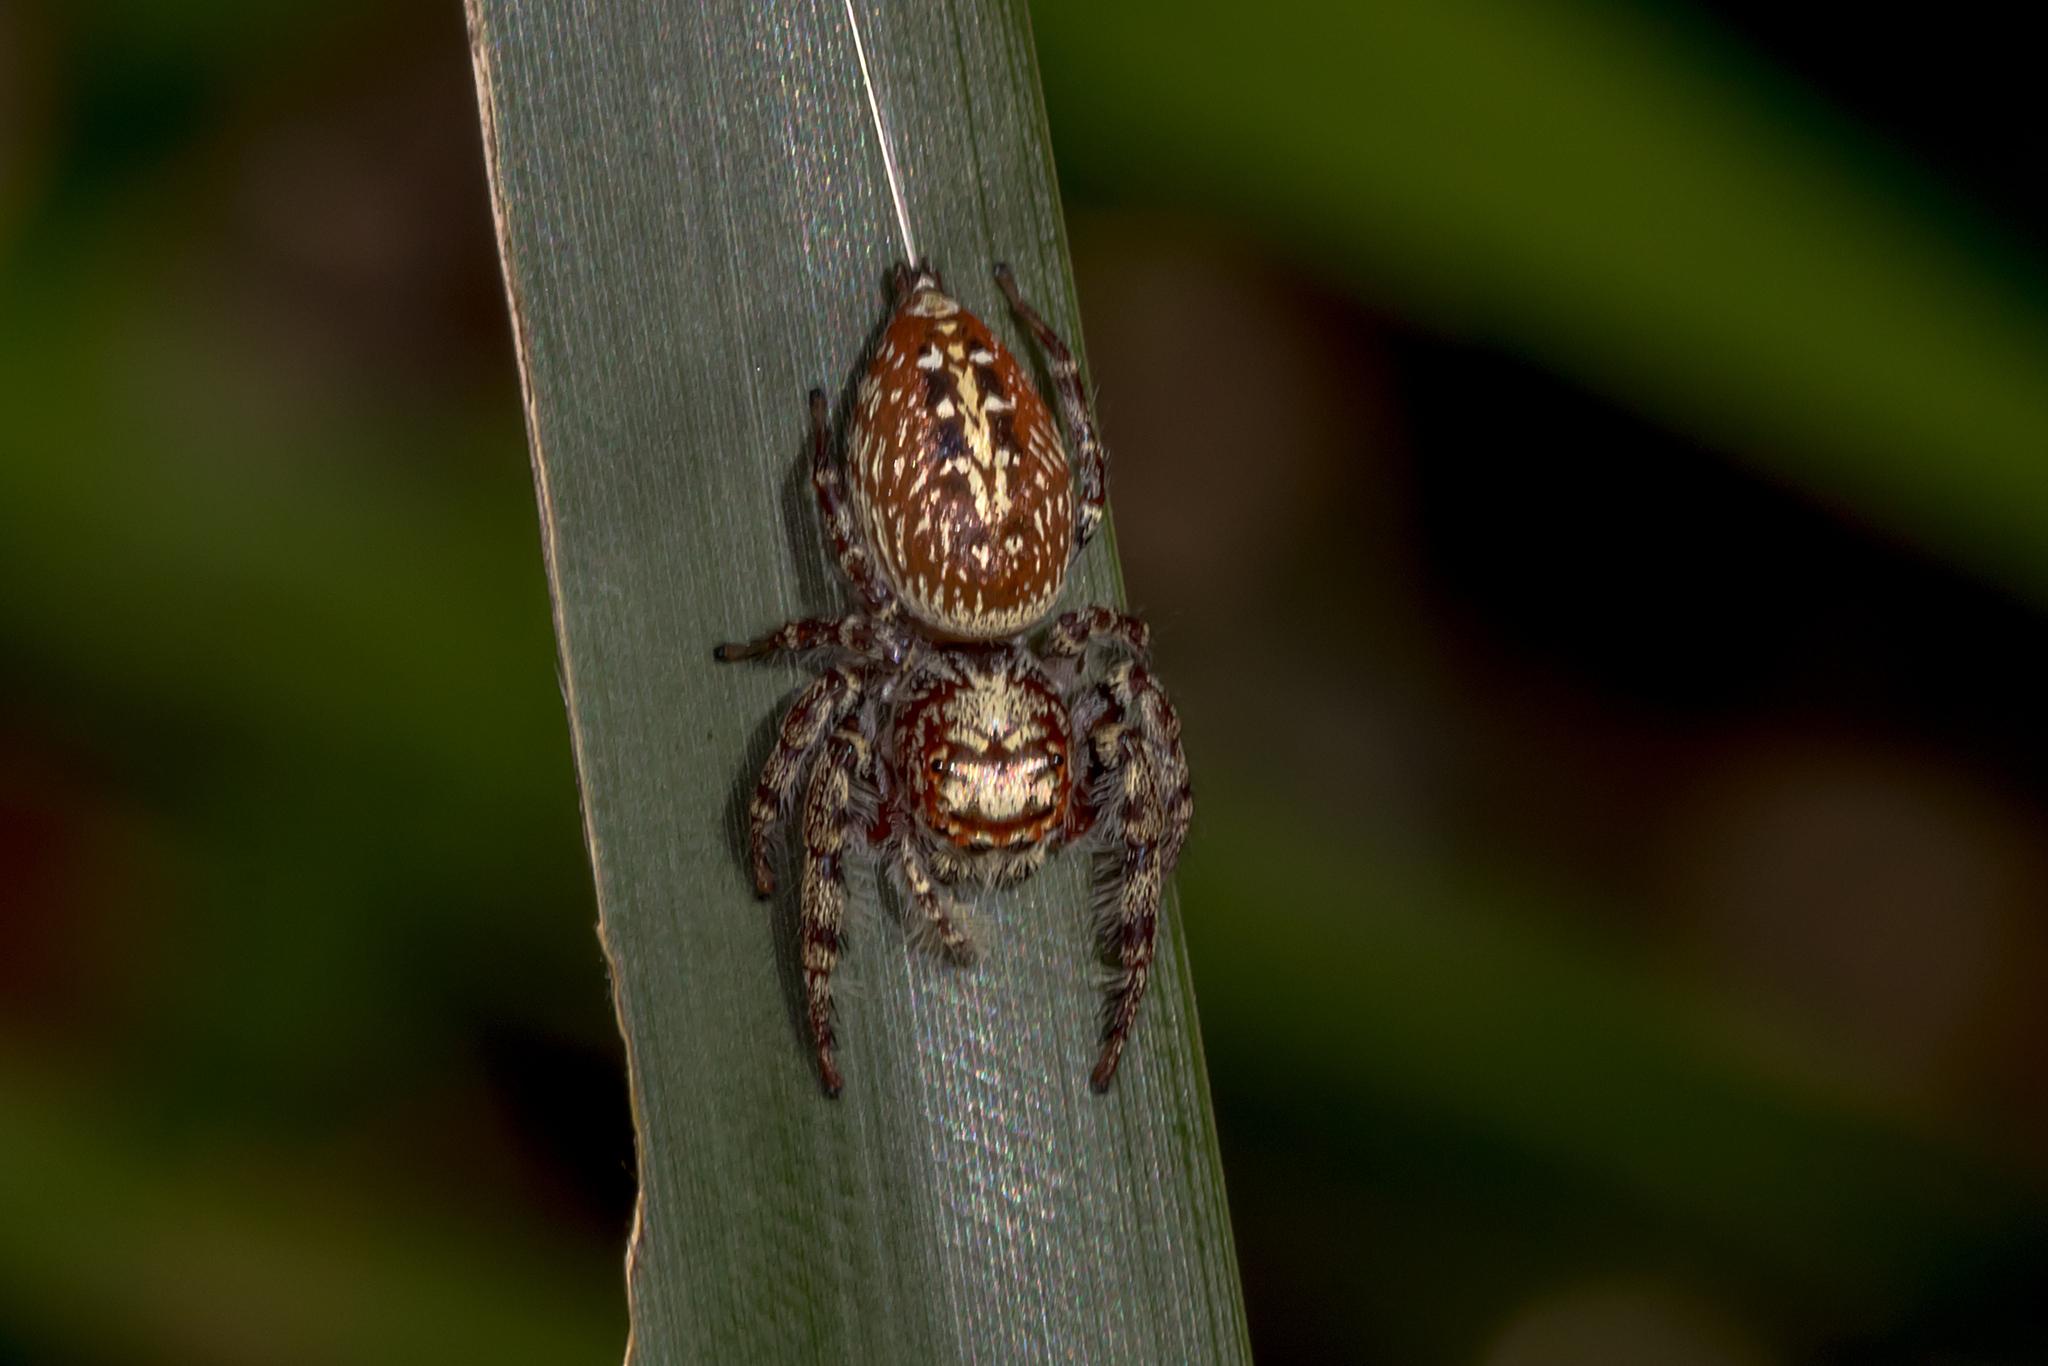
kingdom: Animalia
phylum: Arthropoda
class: Arachnida
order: Araneae
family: Salticidae
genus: Opisthoncus
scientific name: Opisthoncus quadratarius
